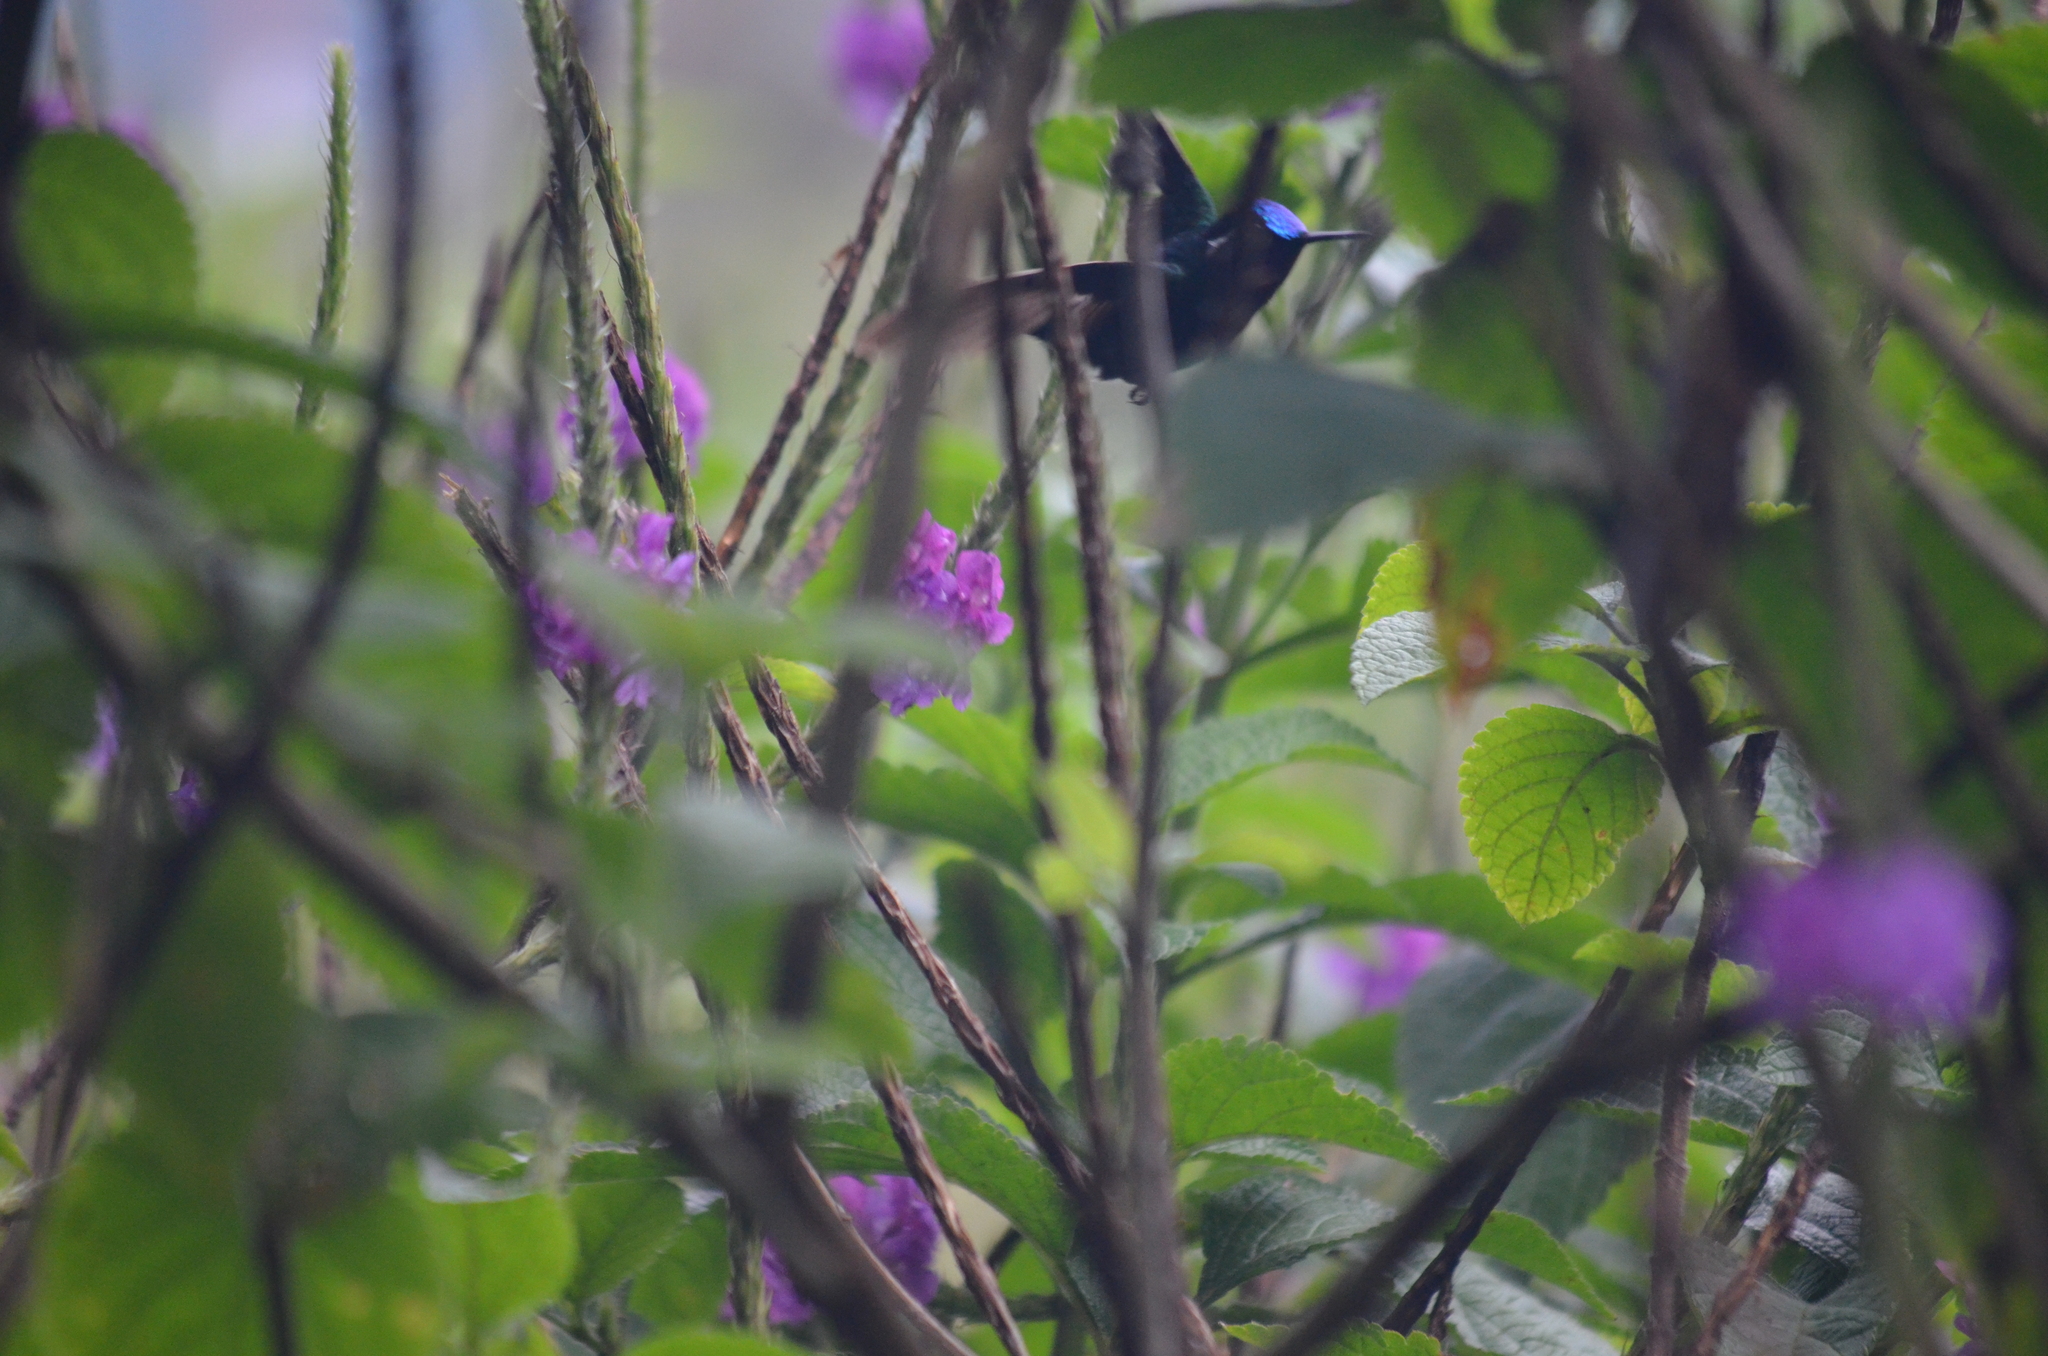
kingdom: Animalia
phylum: Chordata
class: Aves
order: Apodiformes
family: Trochilidae
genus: Lampornis
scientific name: Lampornis calolaemus
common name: Purple-throated mountain-gem
